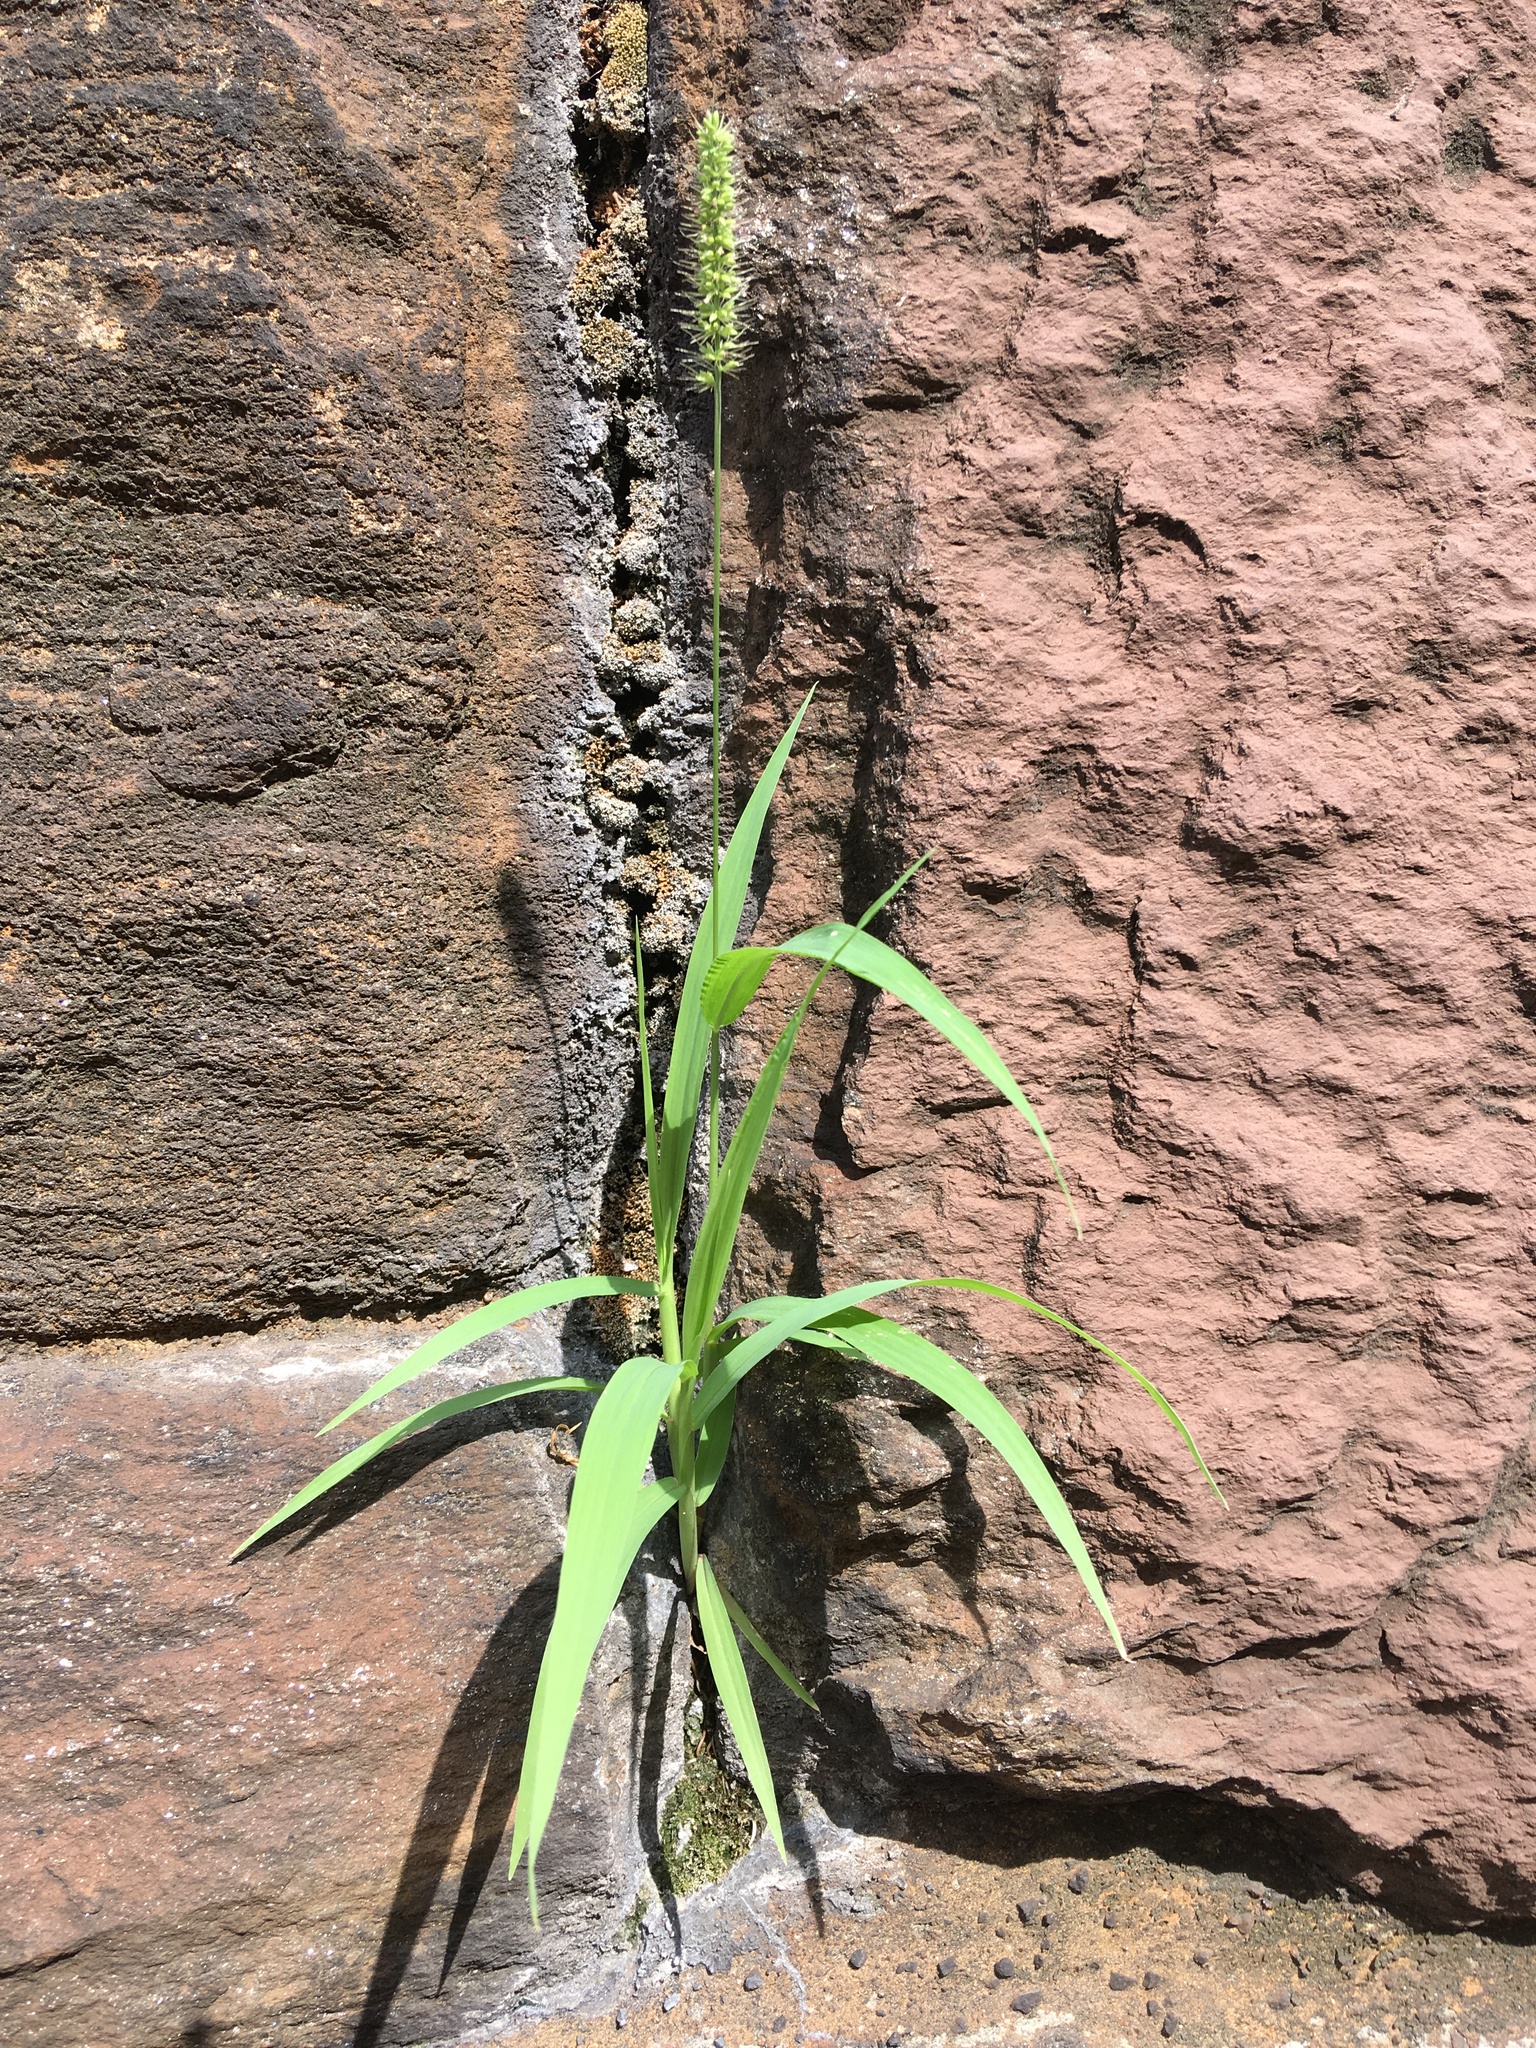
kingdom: Plantae
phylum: Tracheophyta
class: Liliopsida
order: Poales
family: Poaceae
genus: Setaria
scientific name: Setaria verticillata
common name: Hooked bristlegrass
